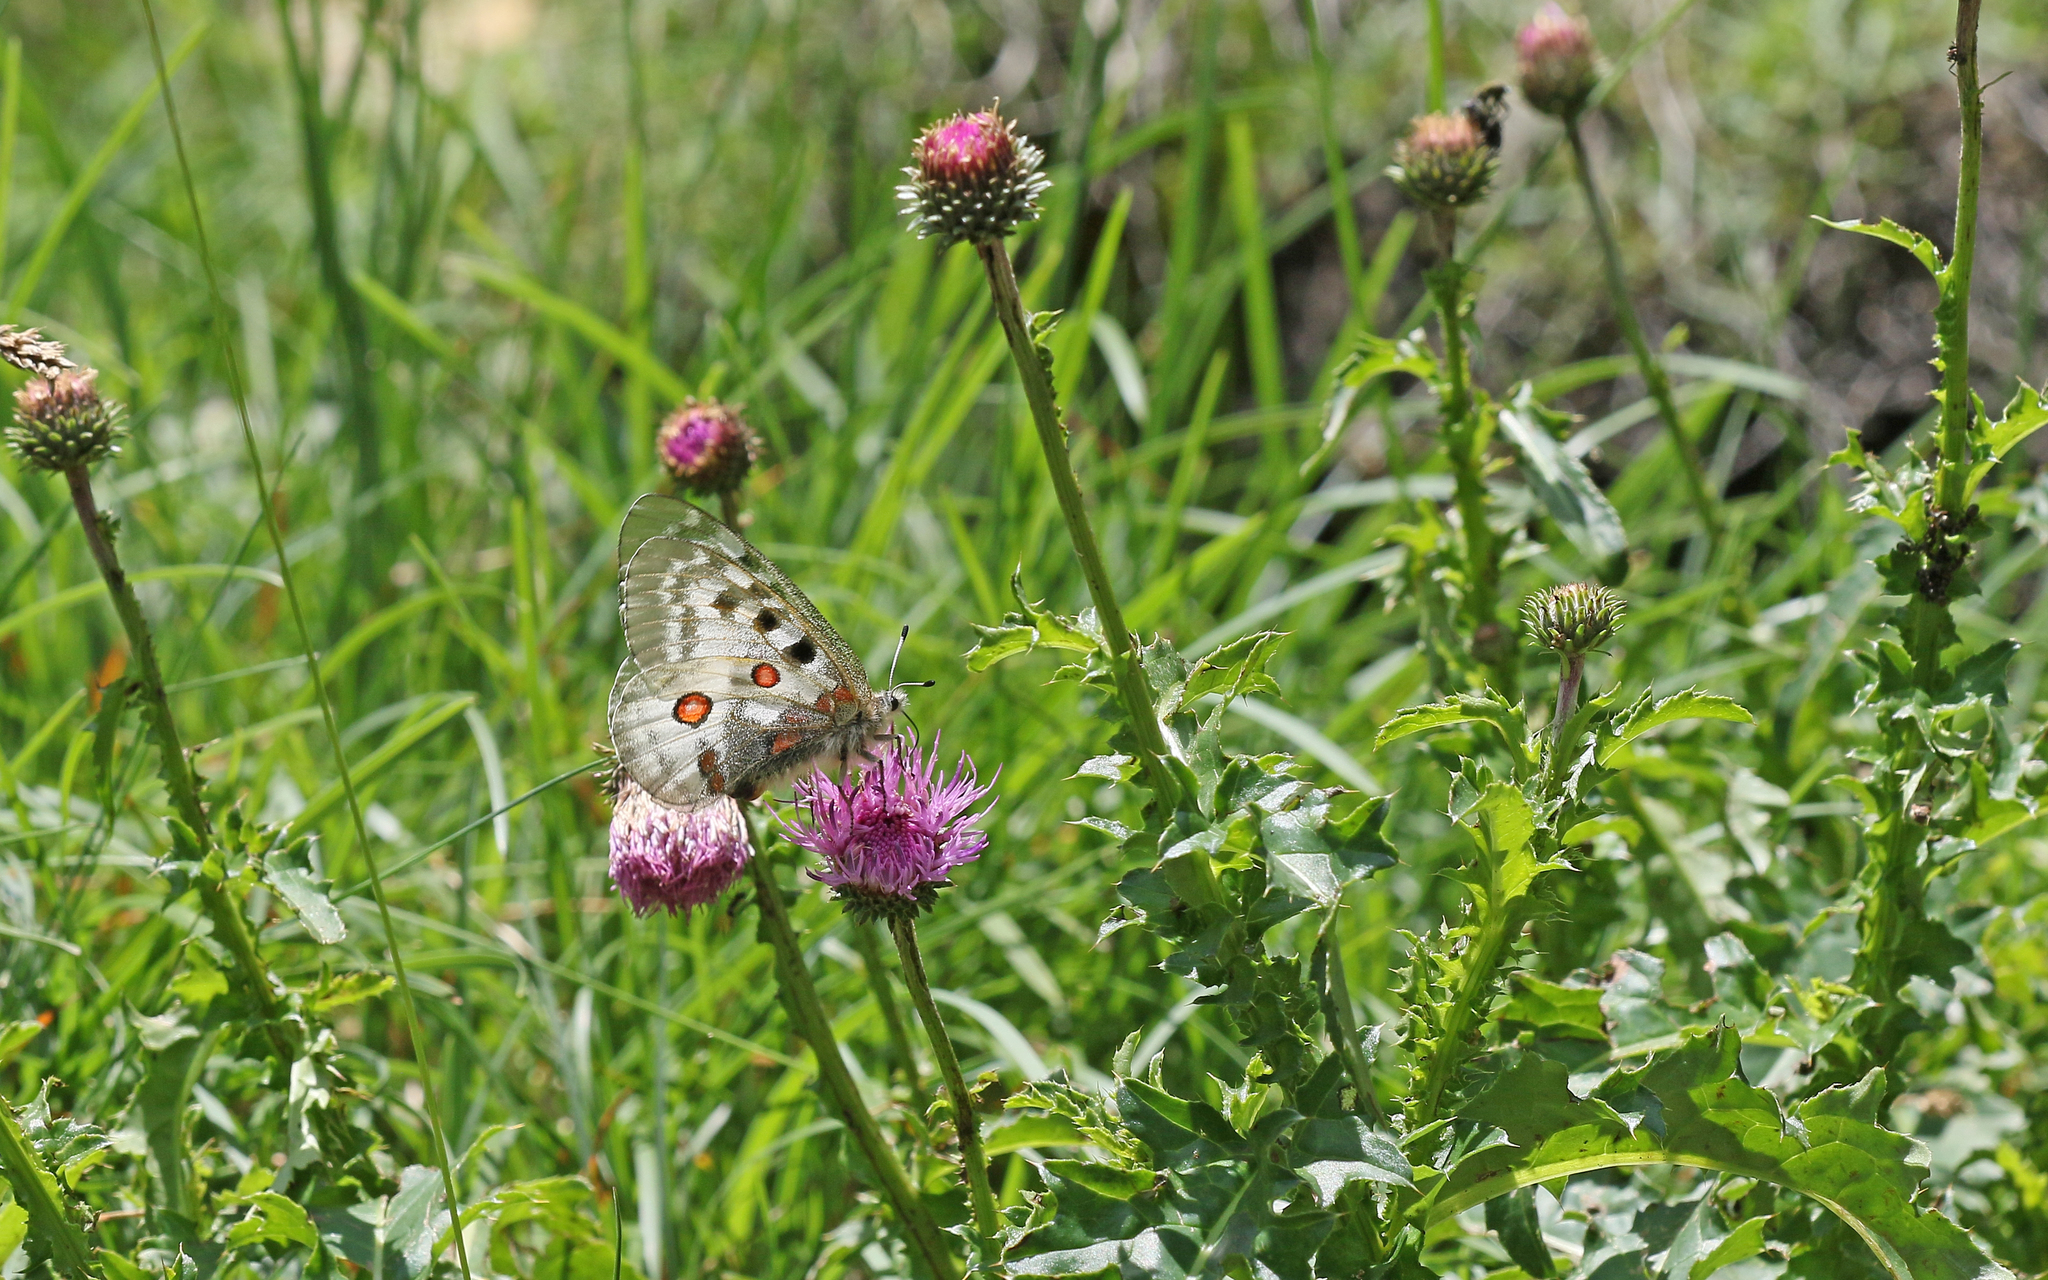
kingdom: Animalia
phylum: Arthropoda
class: Insecta
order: Lepidoptera
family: Papilionidae
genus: Parnassius
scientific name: Parnassius apollo
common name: Apollo
